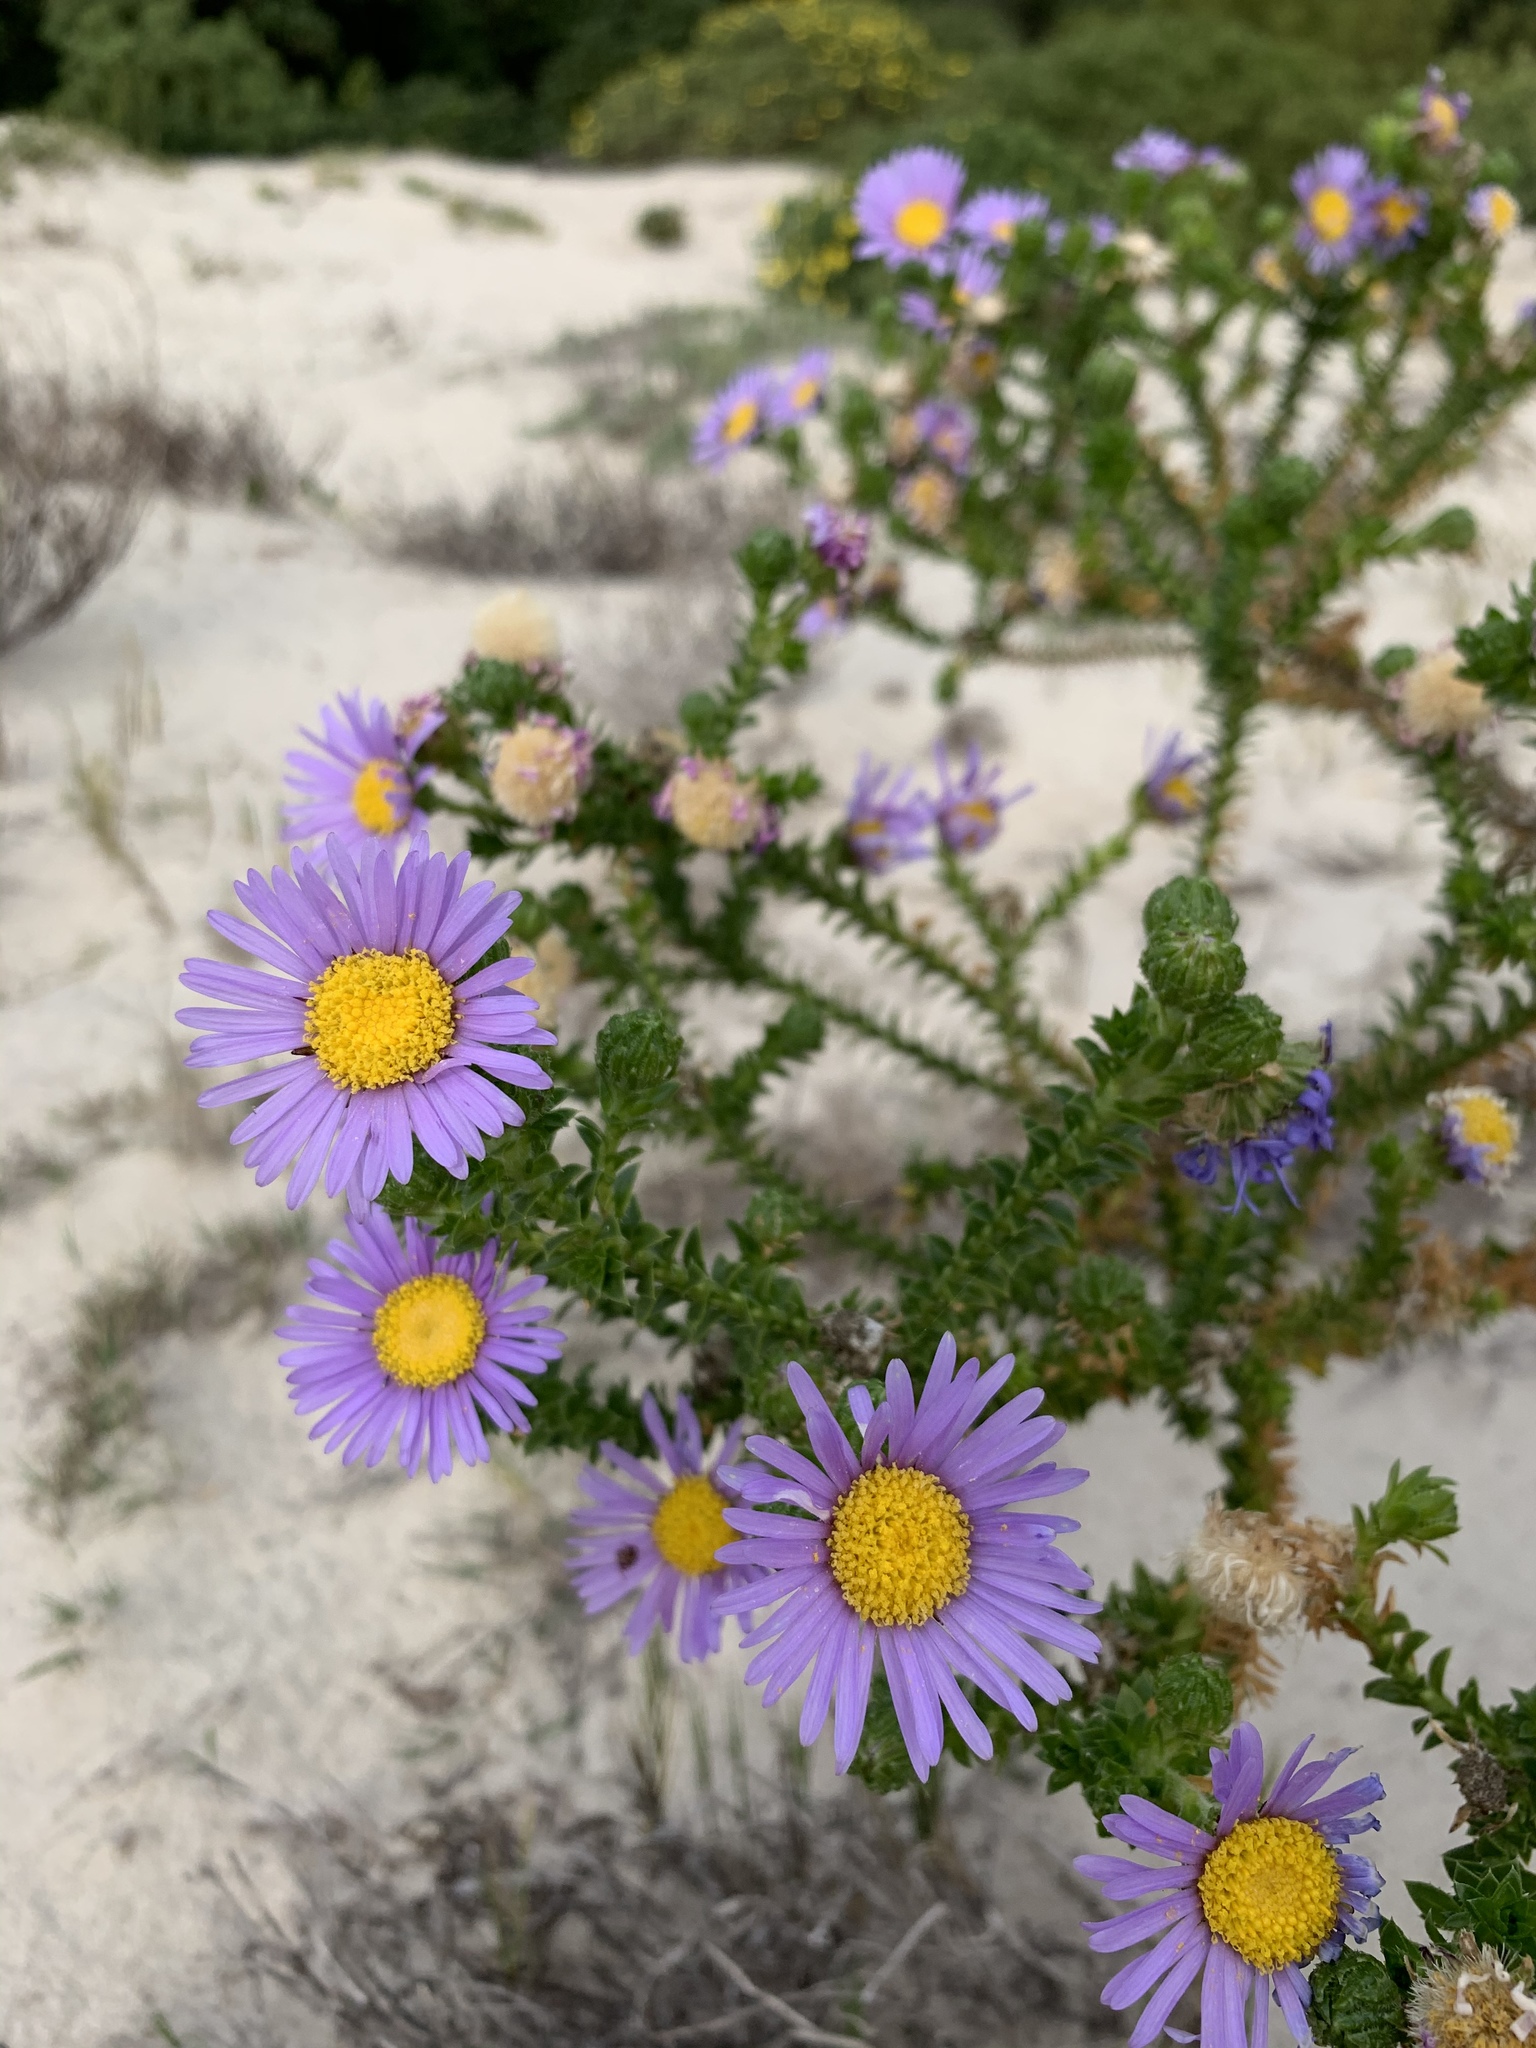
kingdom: Plantae
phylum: Tracheophyta
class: Magnoliopsida
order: Asterales
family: Asteraceae
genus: Felicia
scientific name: Felicia echinata
